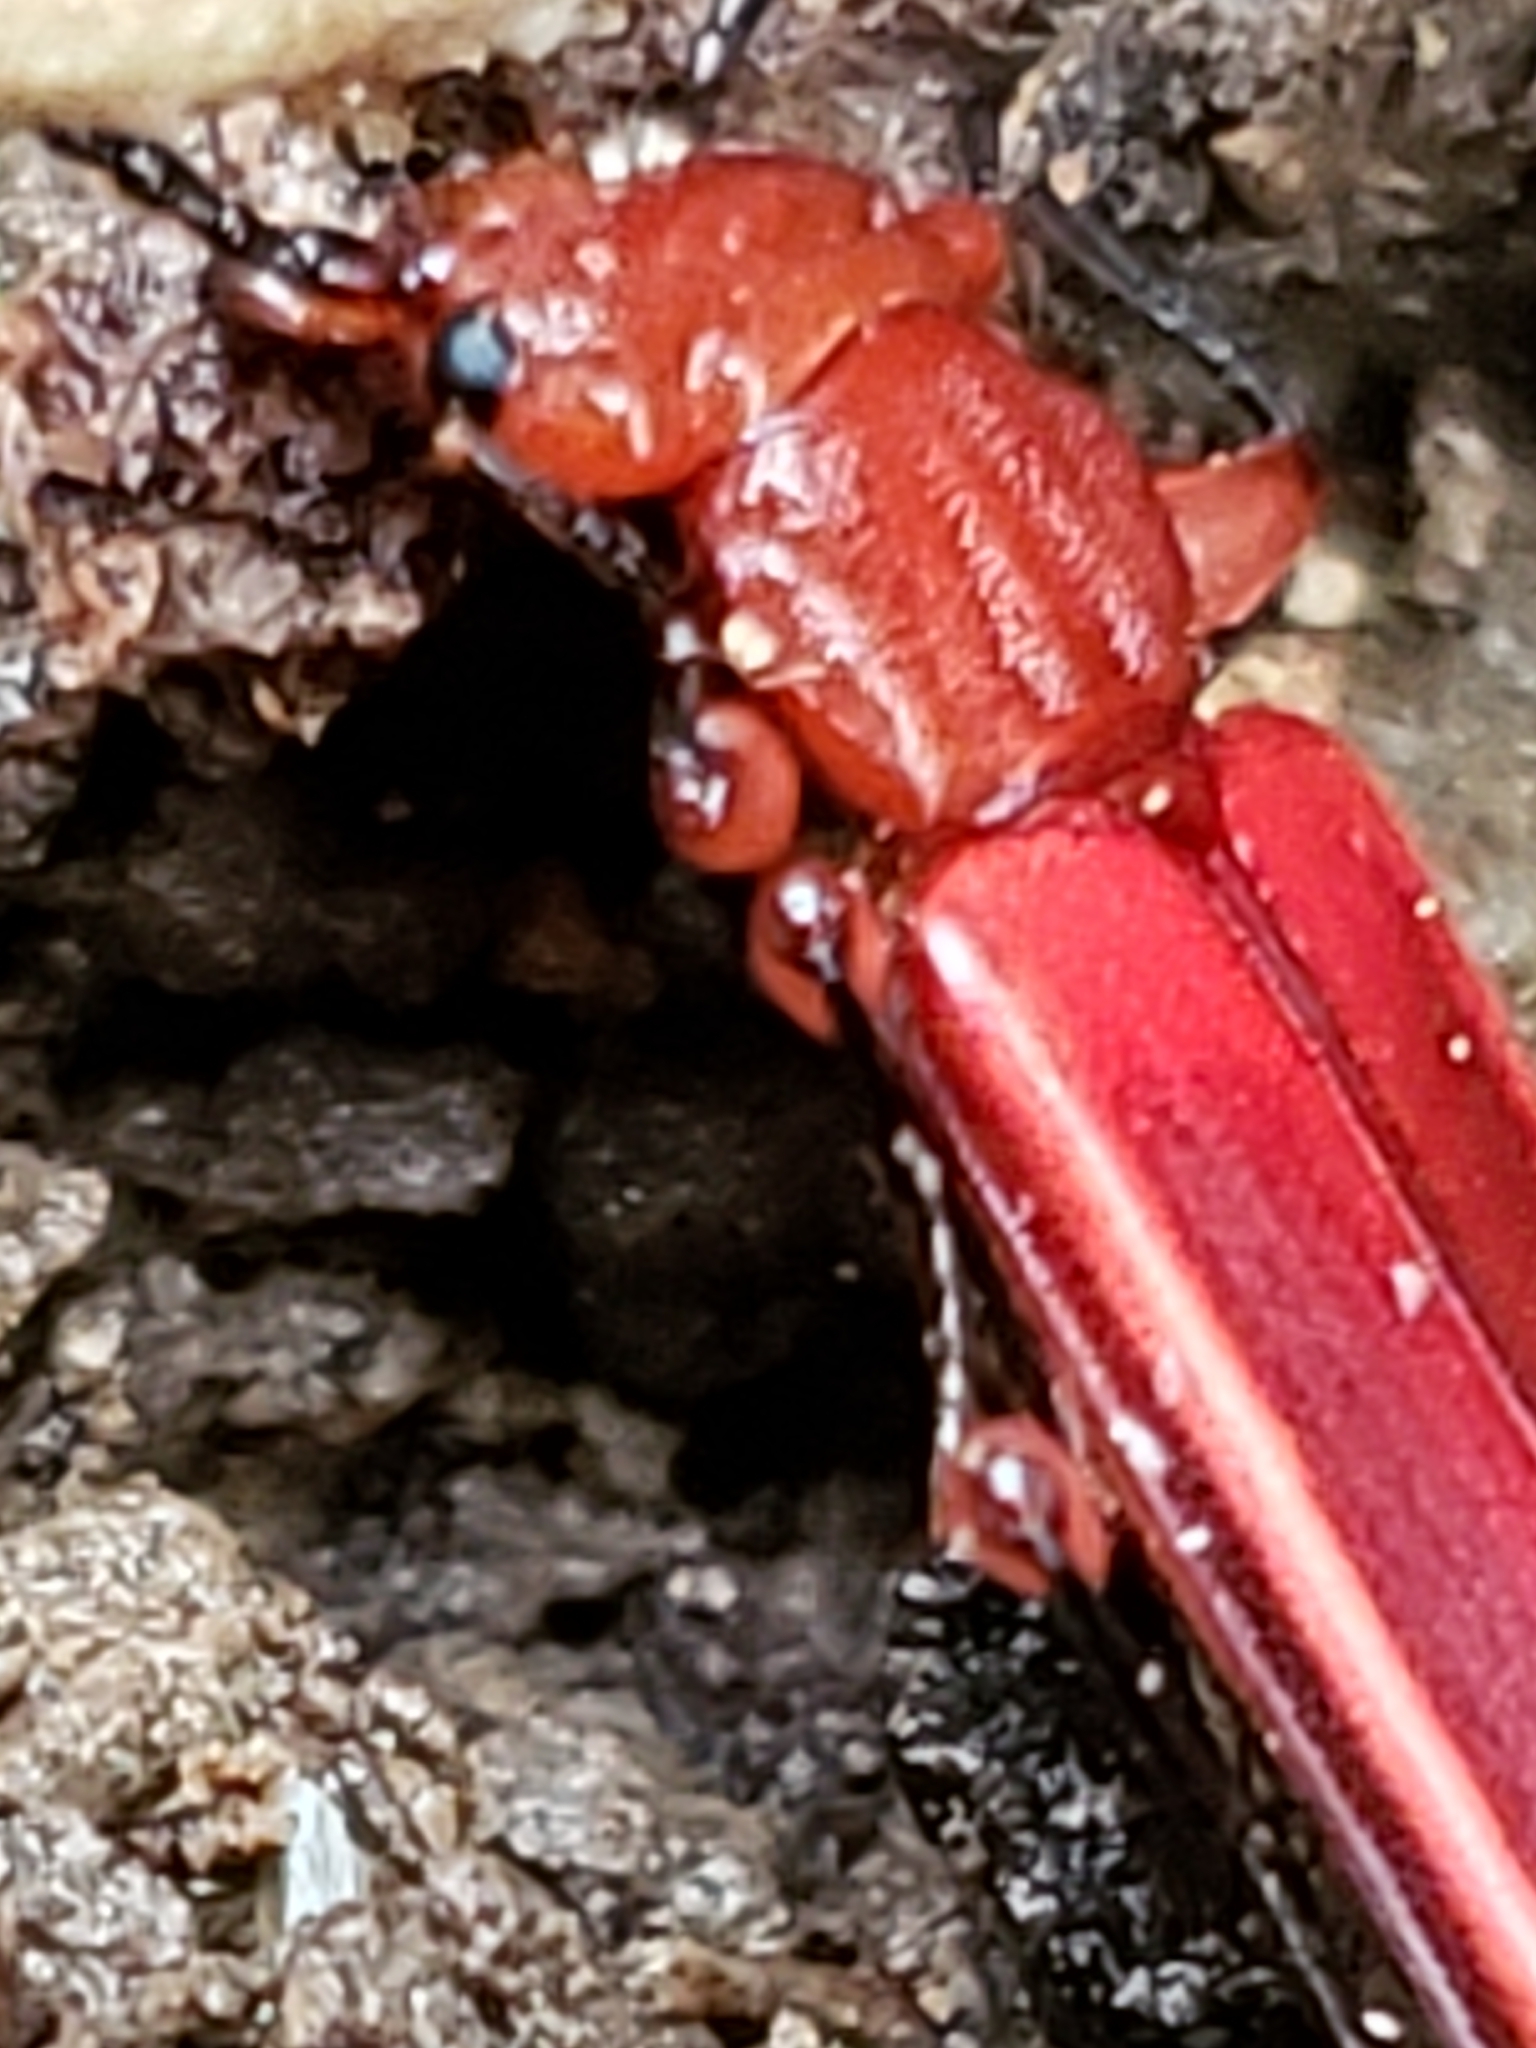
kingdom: Animalia
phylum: Arthropoda
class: Insecta
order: Coleoptera
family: Cucujidae
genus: Cucujus
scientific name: Cucujus clavipes
